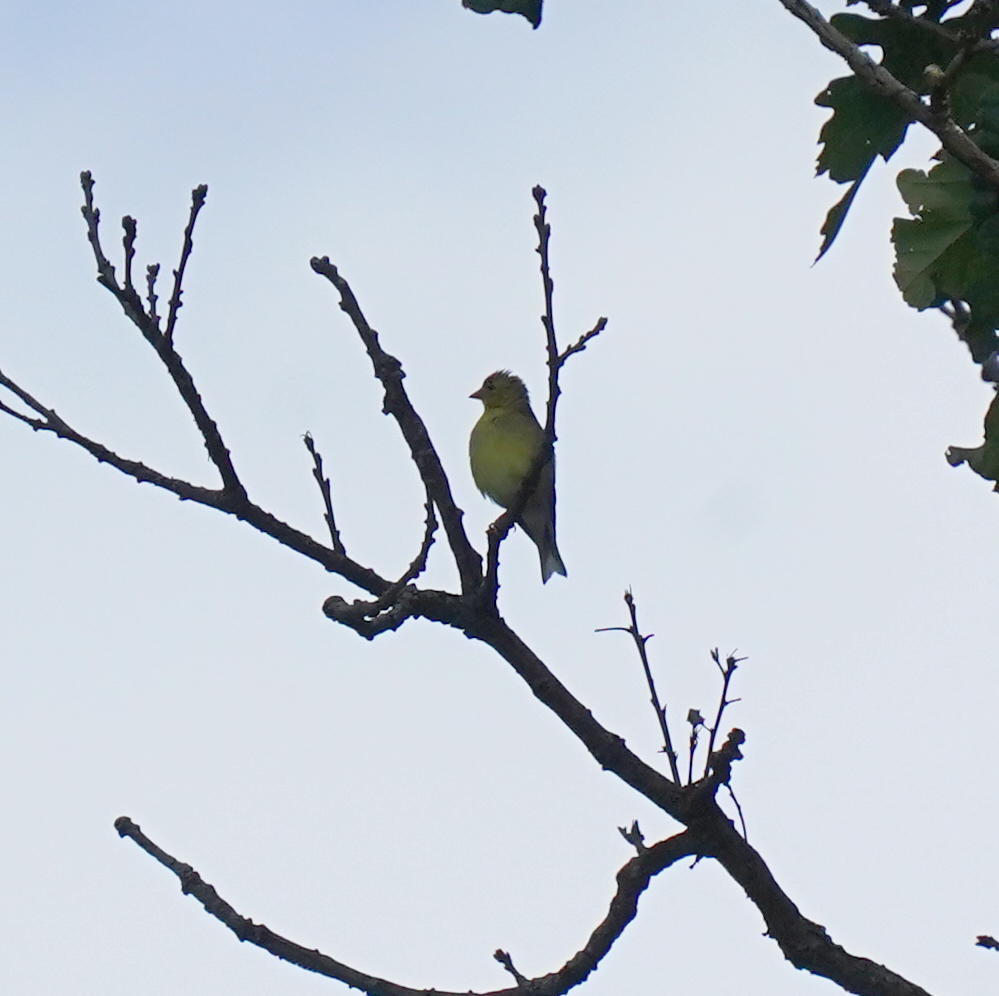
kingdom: Animalia
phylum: Chordata
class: Aves
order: Passeriformes
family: Fringillidae
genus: Spinus
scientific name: Spinus tristis
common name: American goldfinch
